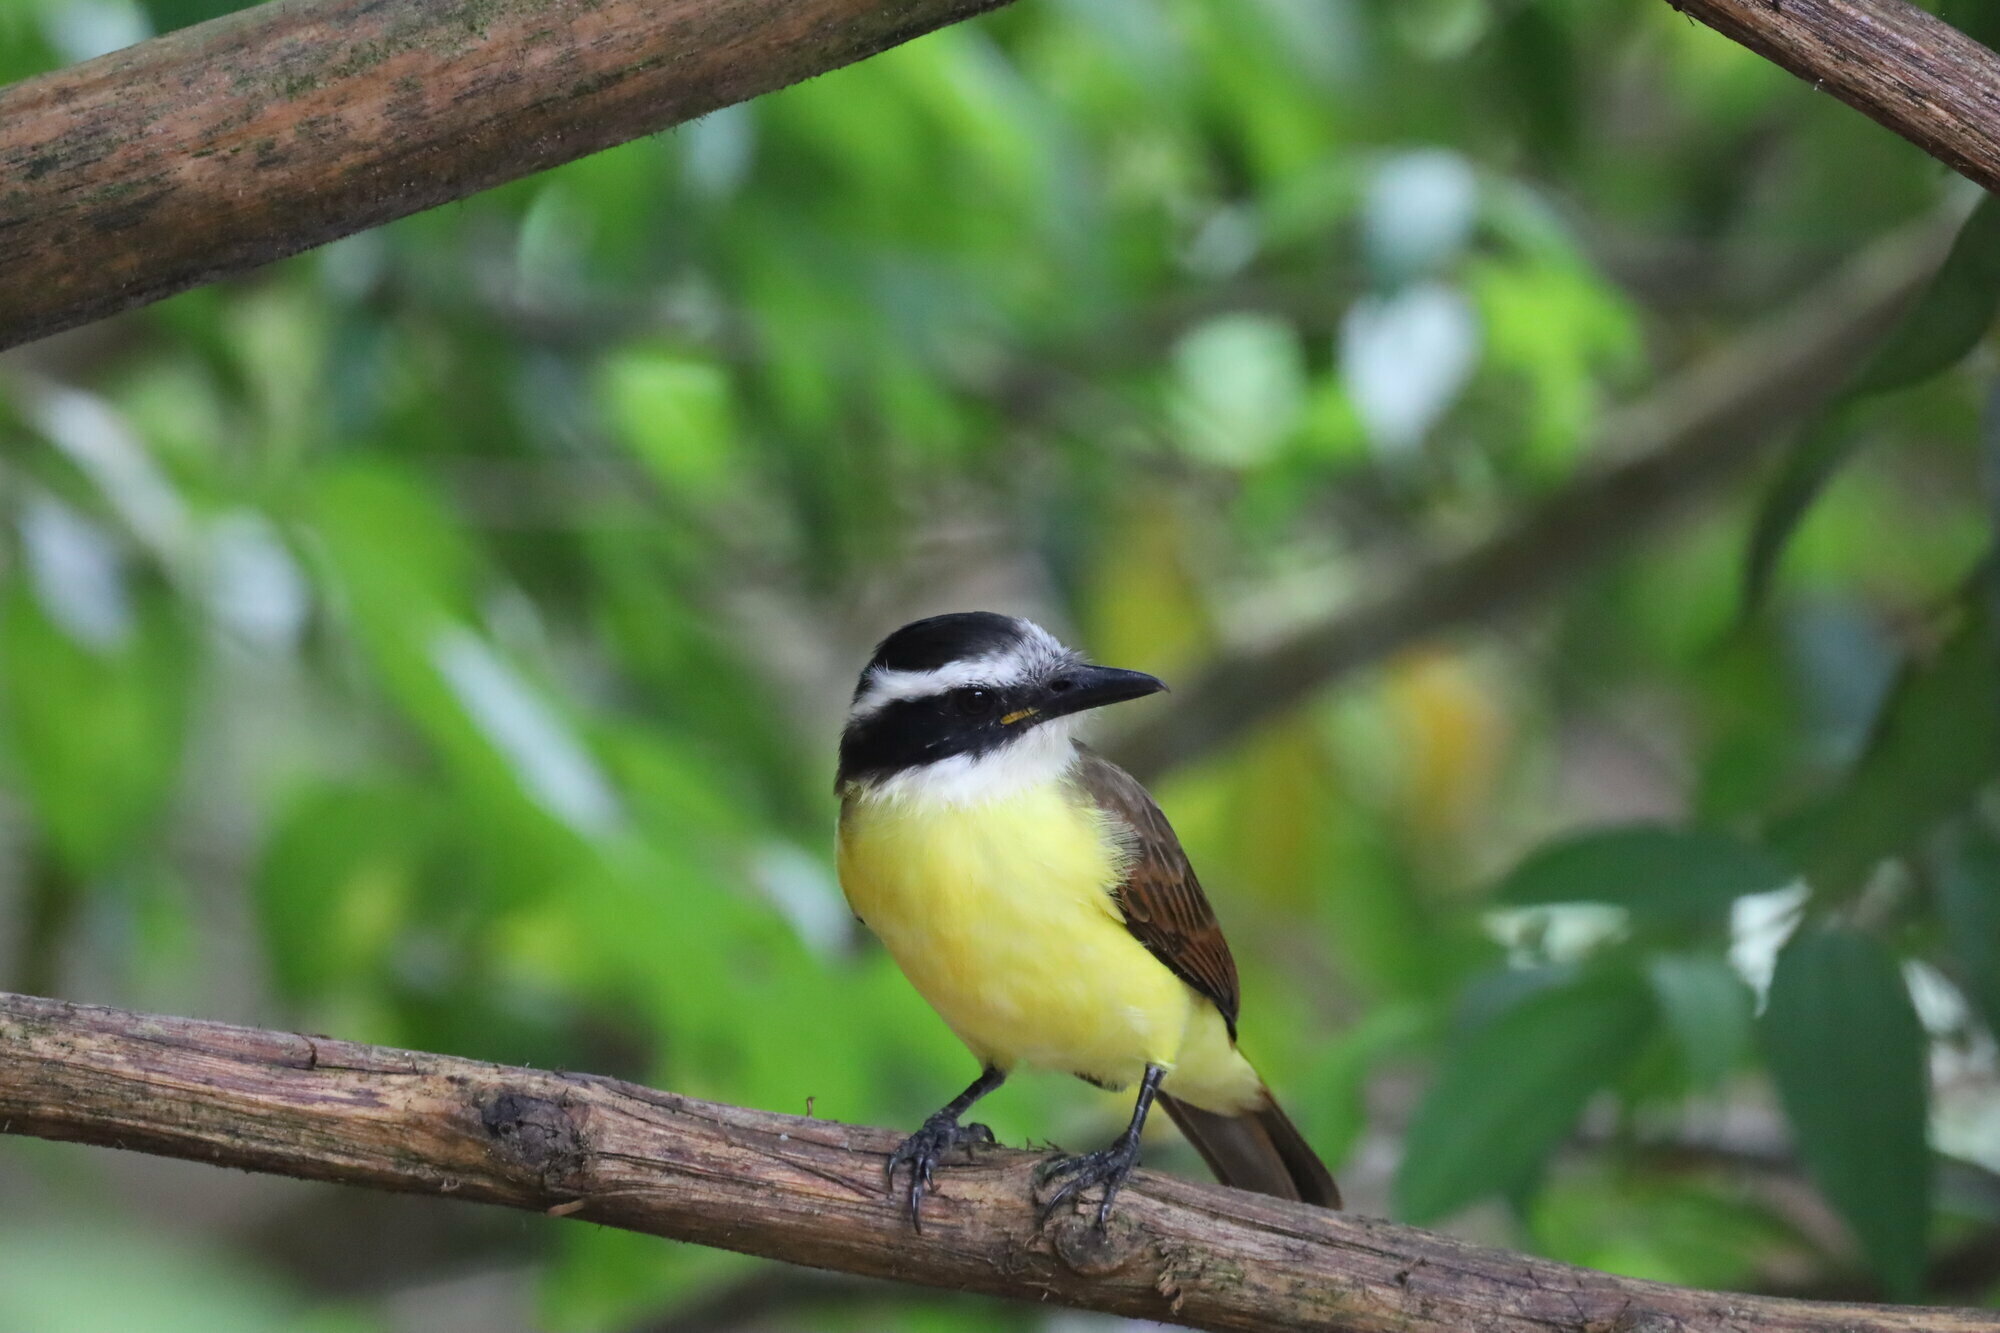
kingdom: Animalia
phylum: Chordata
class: Aves
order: Passeriformes
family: Tyrannidae
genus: Pitangus
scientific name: Pitangus sulphuratus
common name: Great kiskadee
